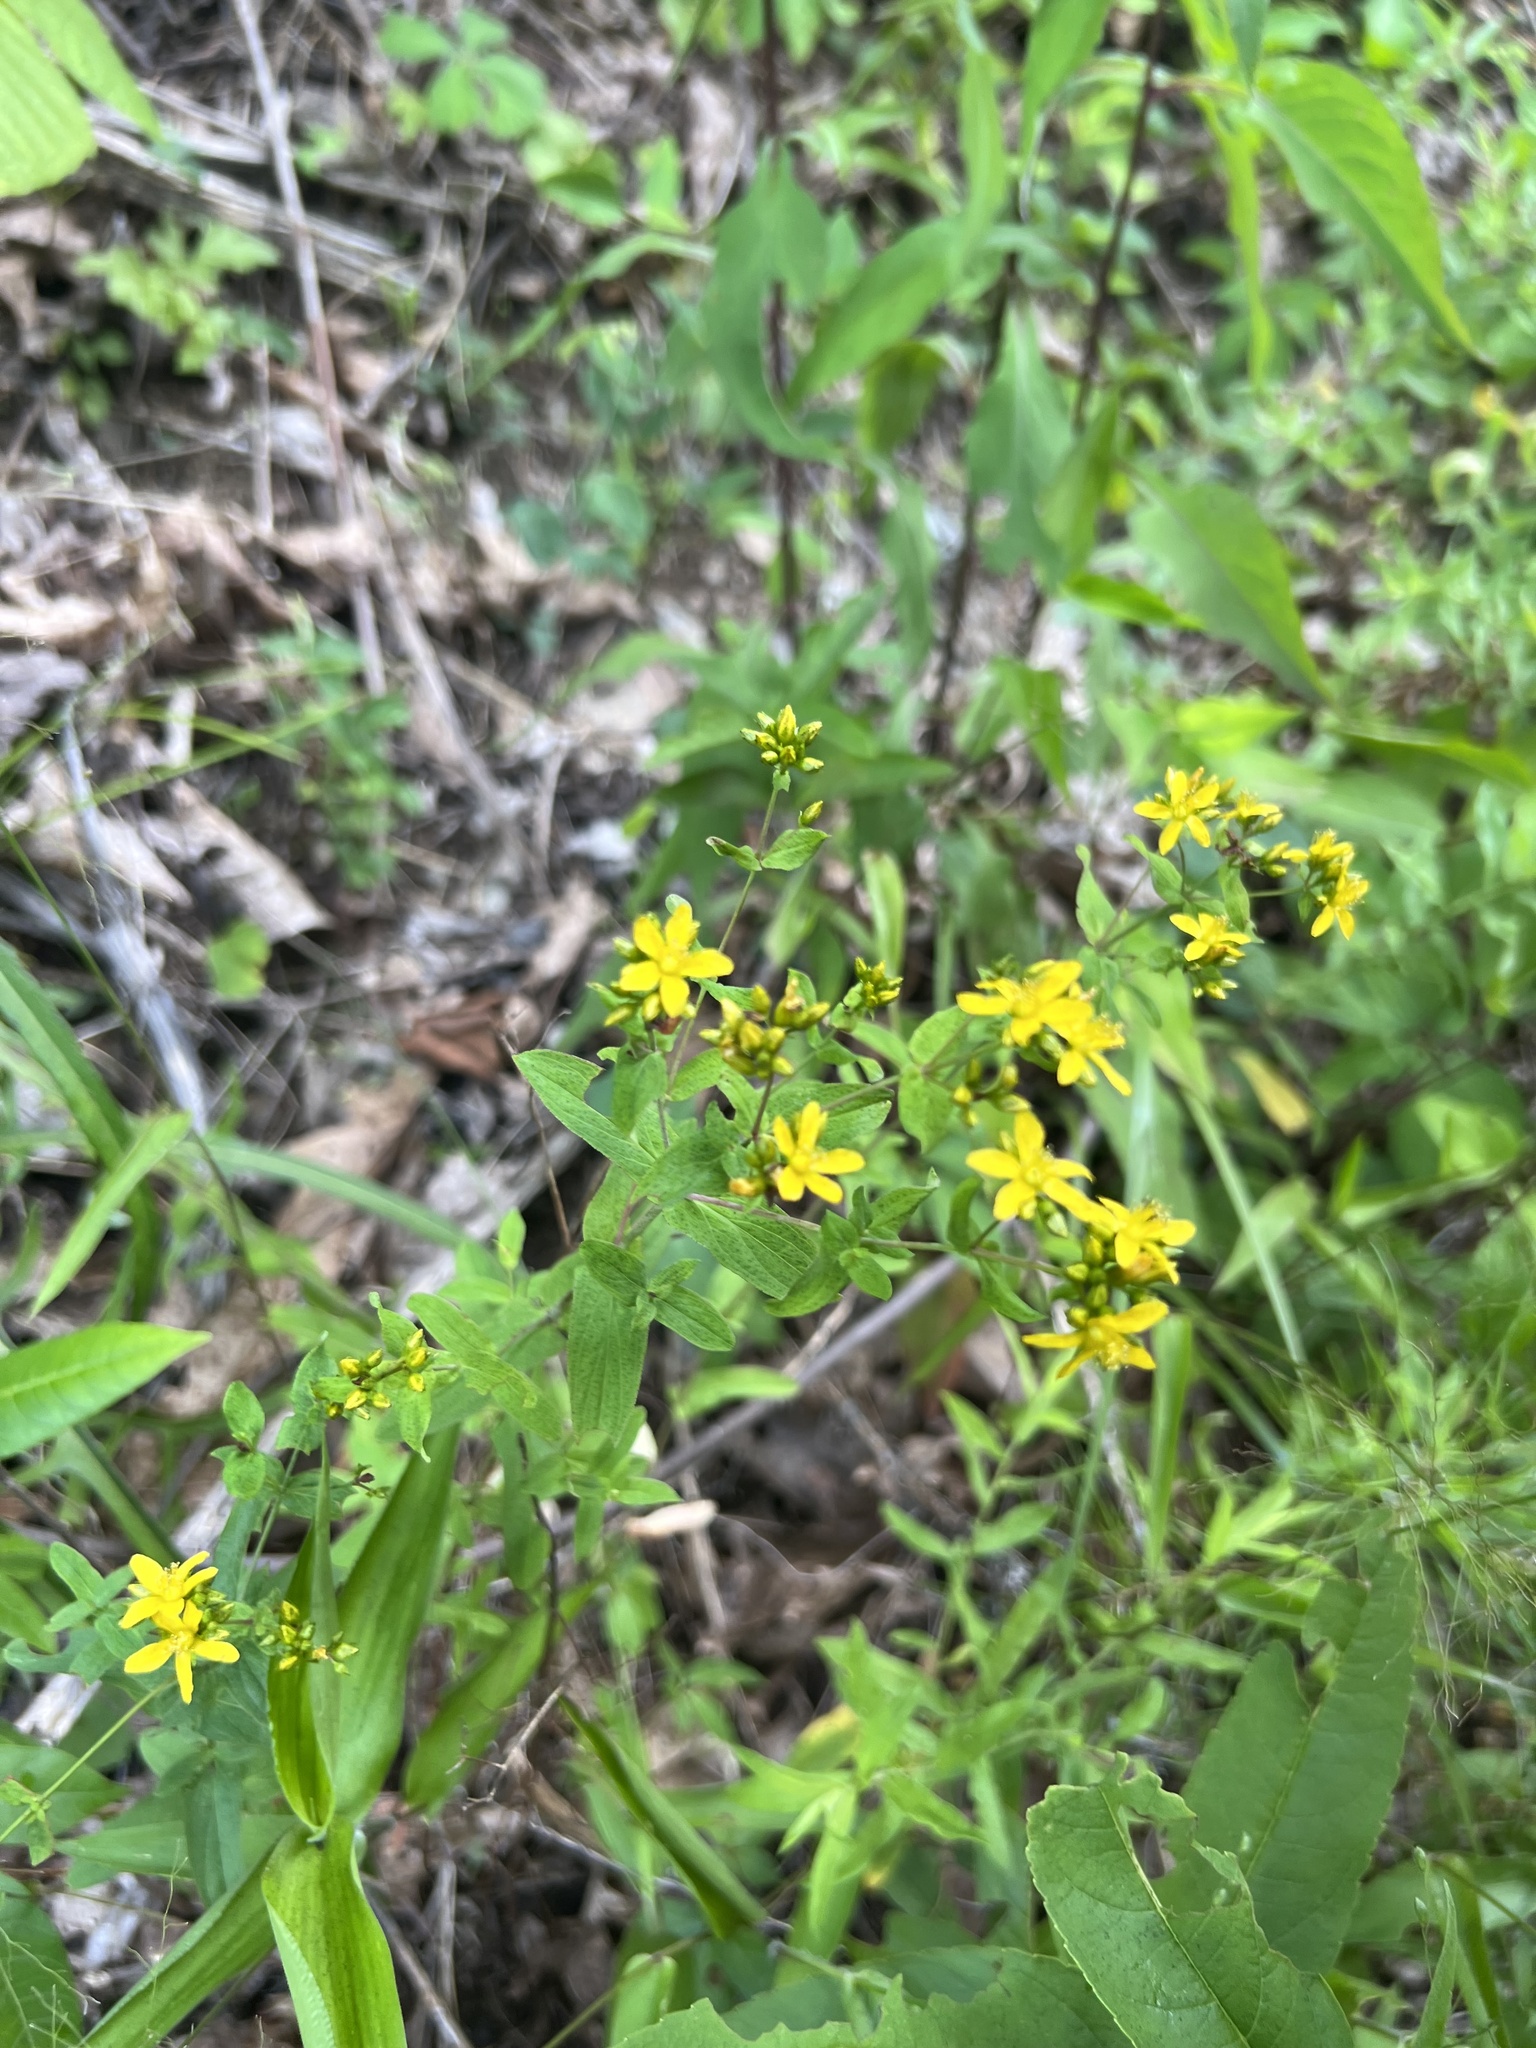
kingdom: Plantae
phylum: Tracheophyta
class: Magnoliopsida
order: Malpighiales
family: Hypericaceae
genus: Hypericum
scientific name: Hypericum punctatum
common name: Spotted st. john's-wort
